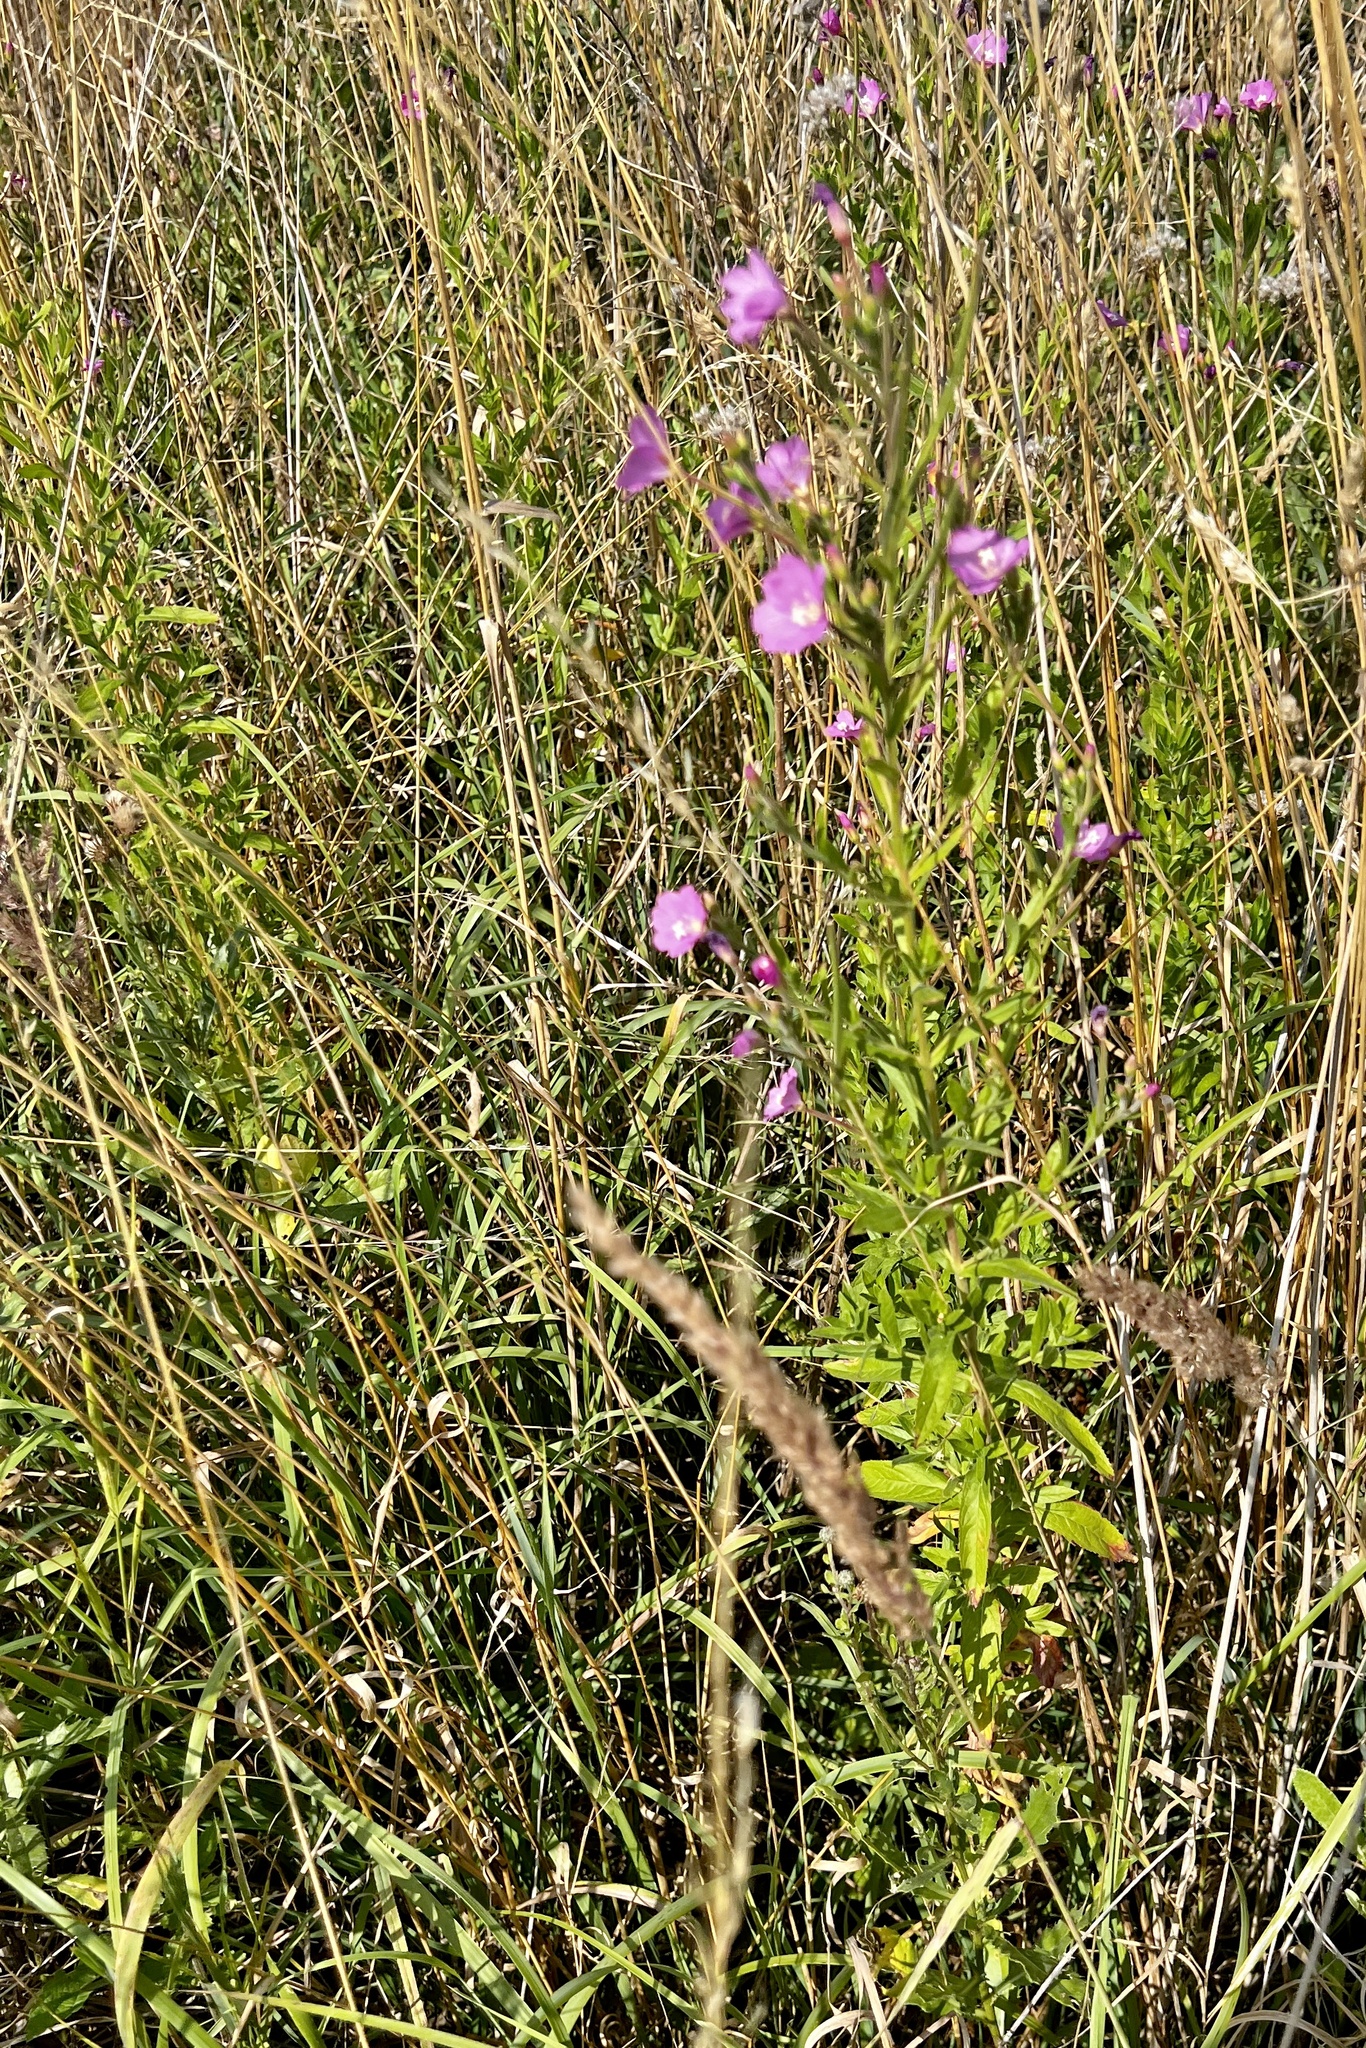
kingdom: Plantae
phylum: Tracheophyta
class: Magnoliopsida
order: Myrtales
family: Onagraceae
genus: Epilobium
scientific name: Epilobium hirsutum
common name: Great willowherb
